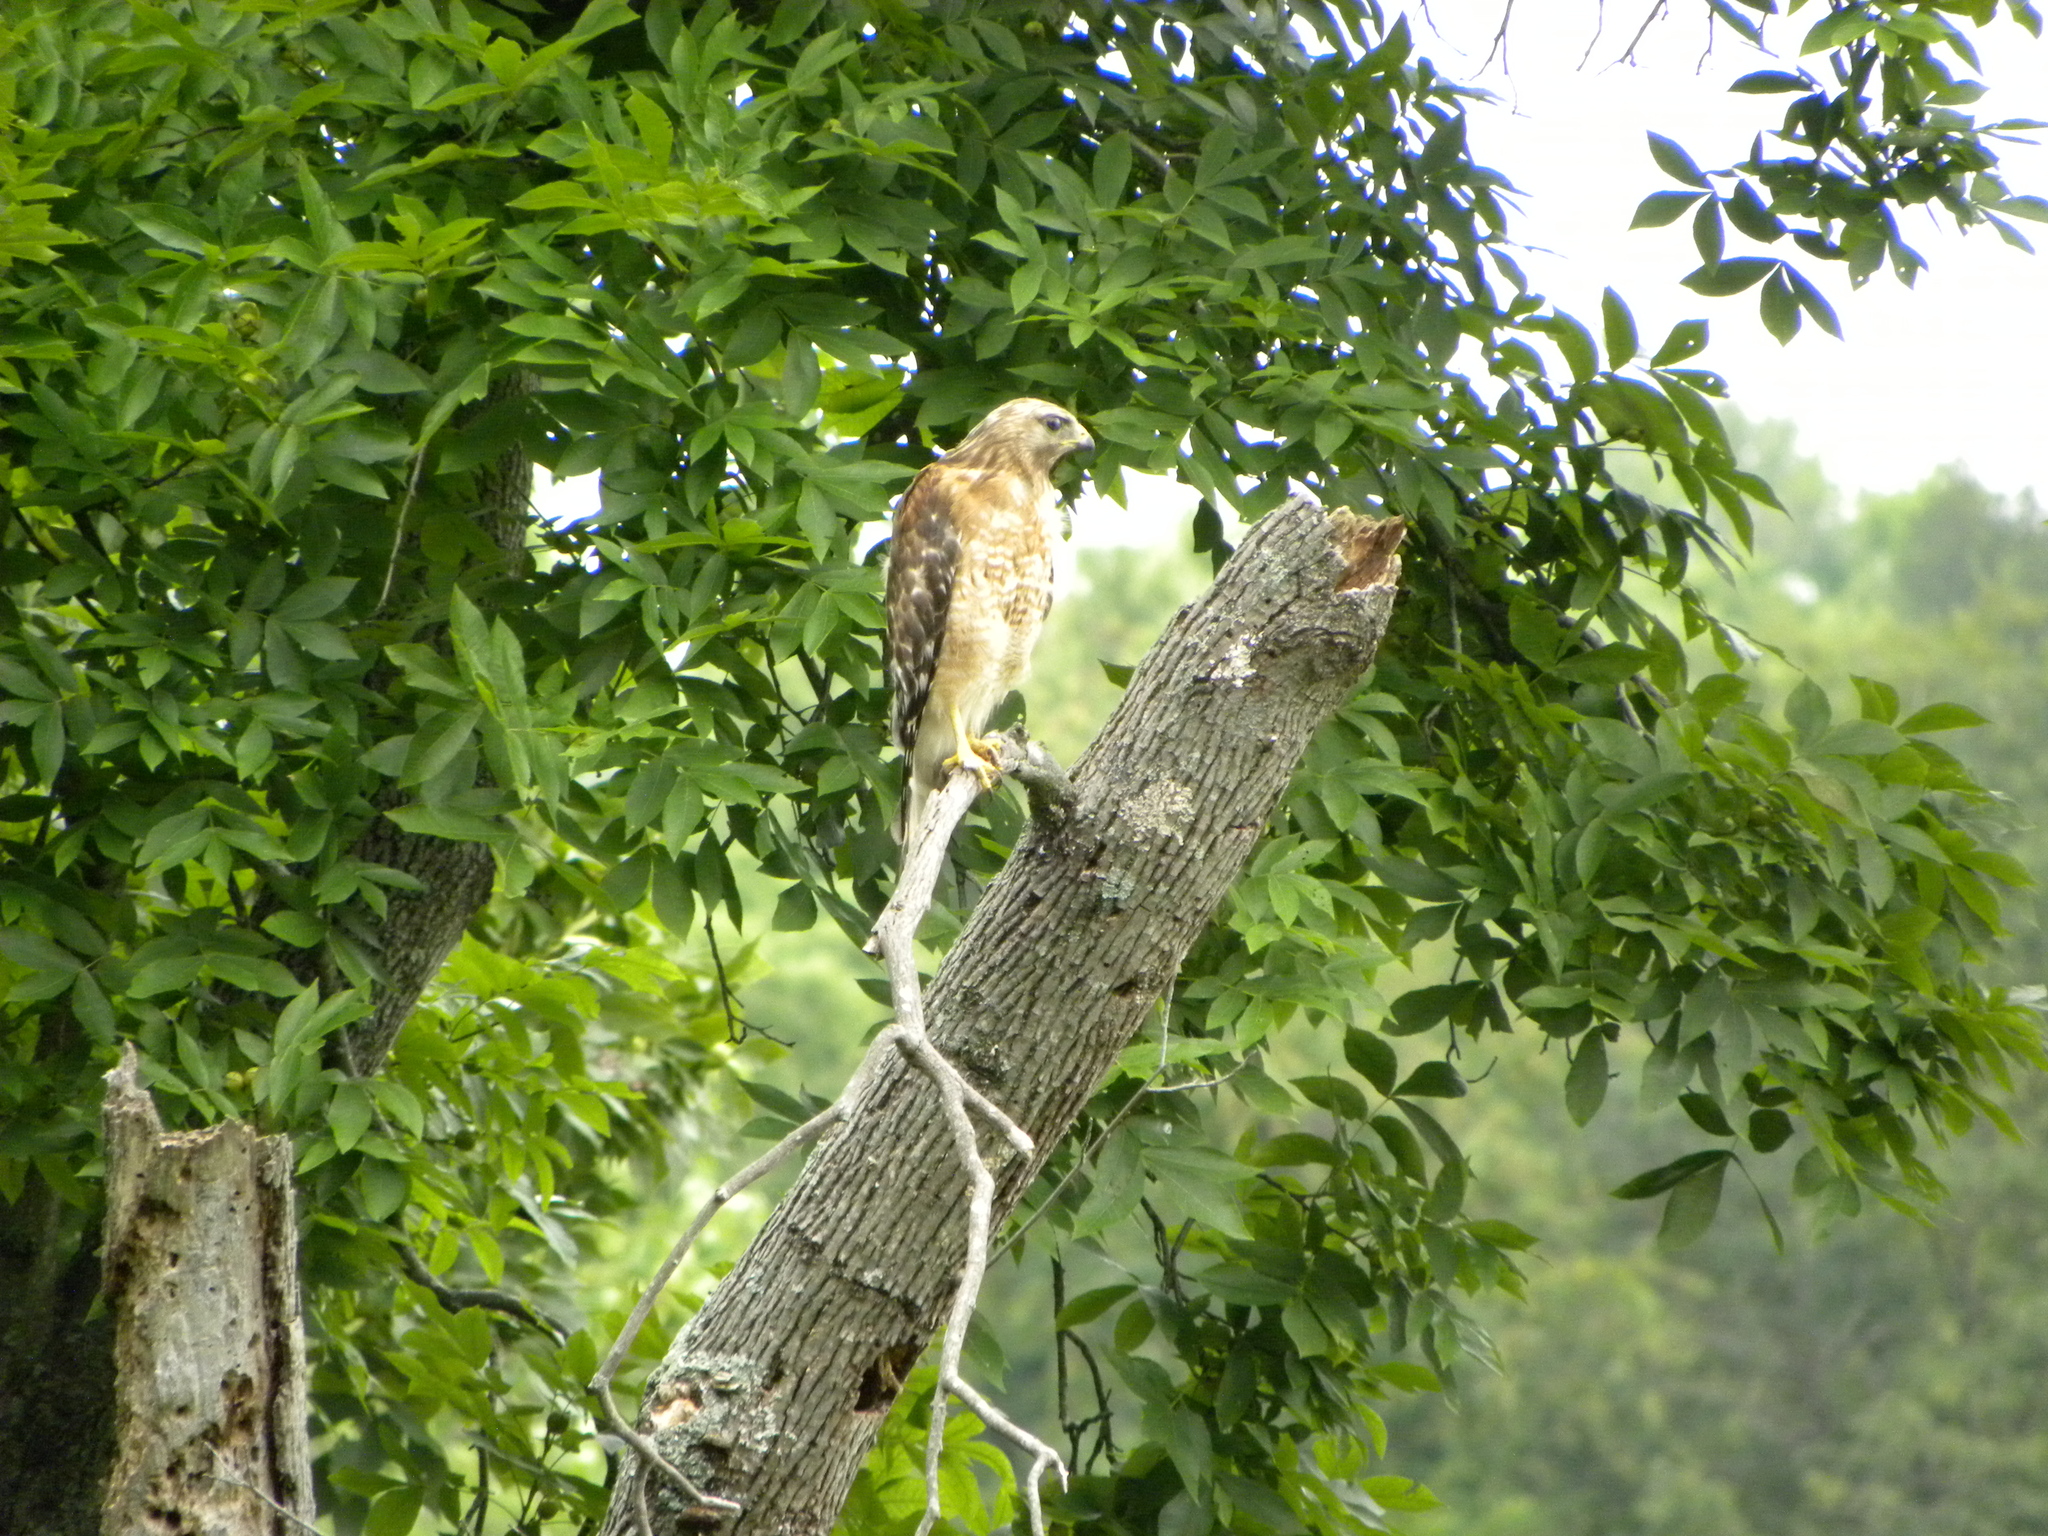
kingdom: Animalia
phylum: Chordata
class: Aves
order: Accipitriformes
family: Accipitridae
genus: Buteo
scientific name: Buteo lineatus
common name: Red-shouldered hawk
